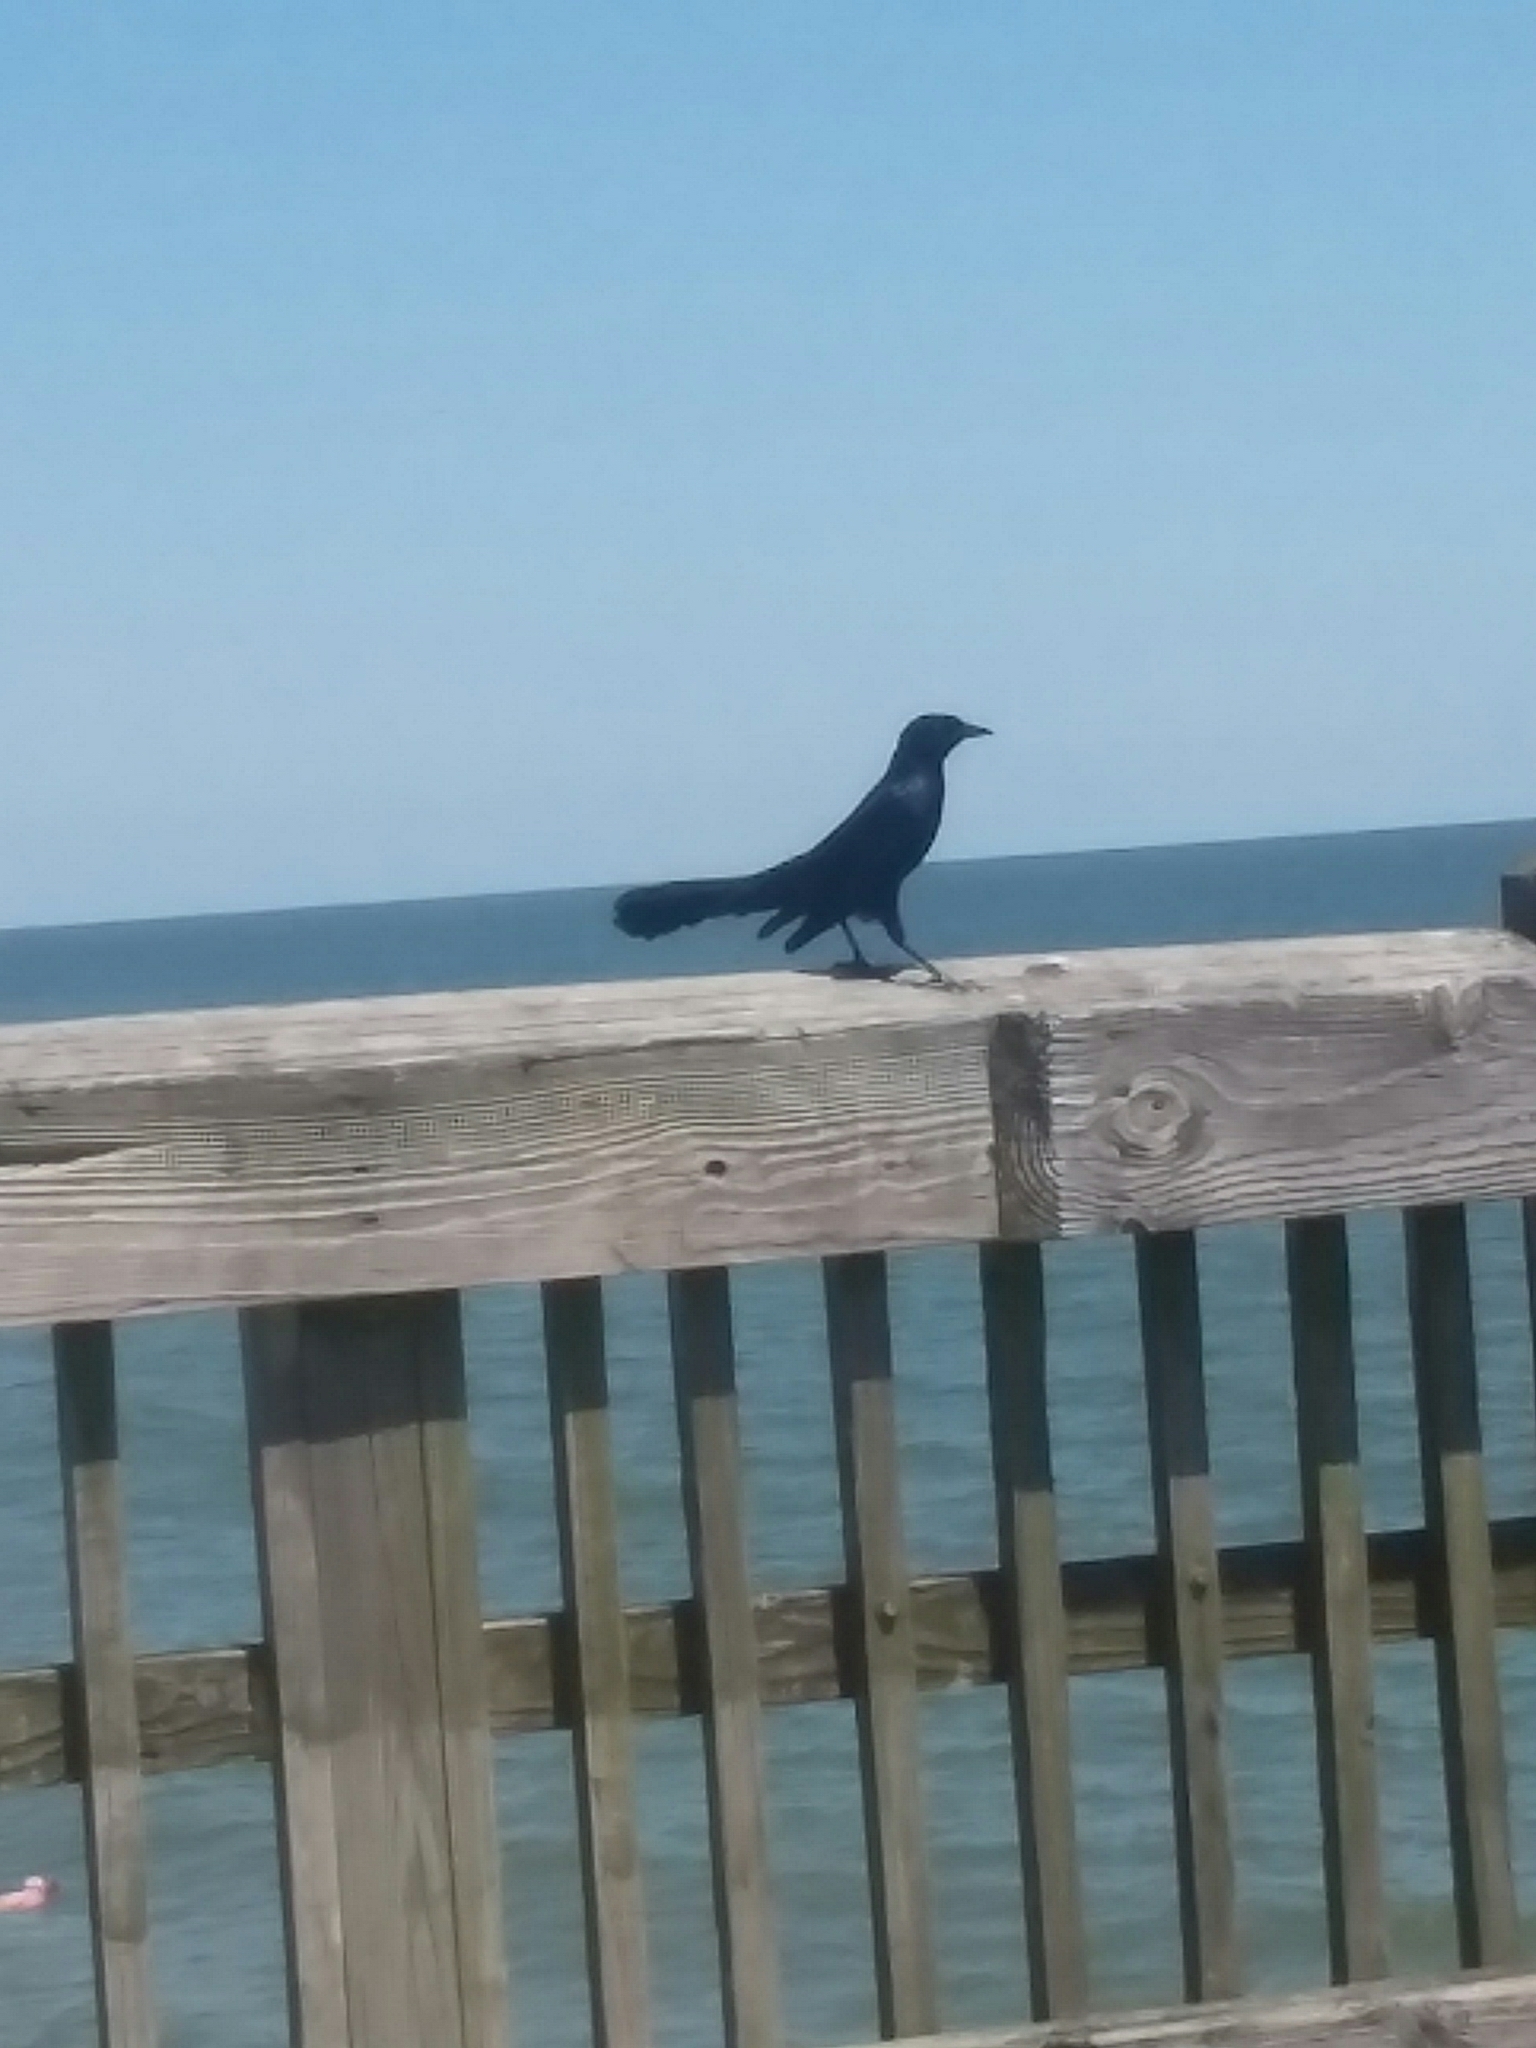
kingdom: Animalia
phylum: Chordata
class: Aves
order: Passeriformes
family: Icteridae
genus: Quiscalus
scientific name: Quiscalus major
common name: Boat-tailed grackle
